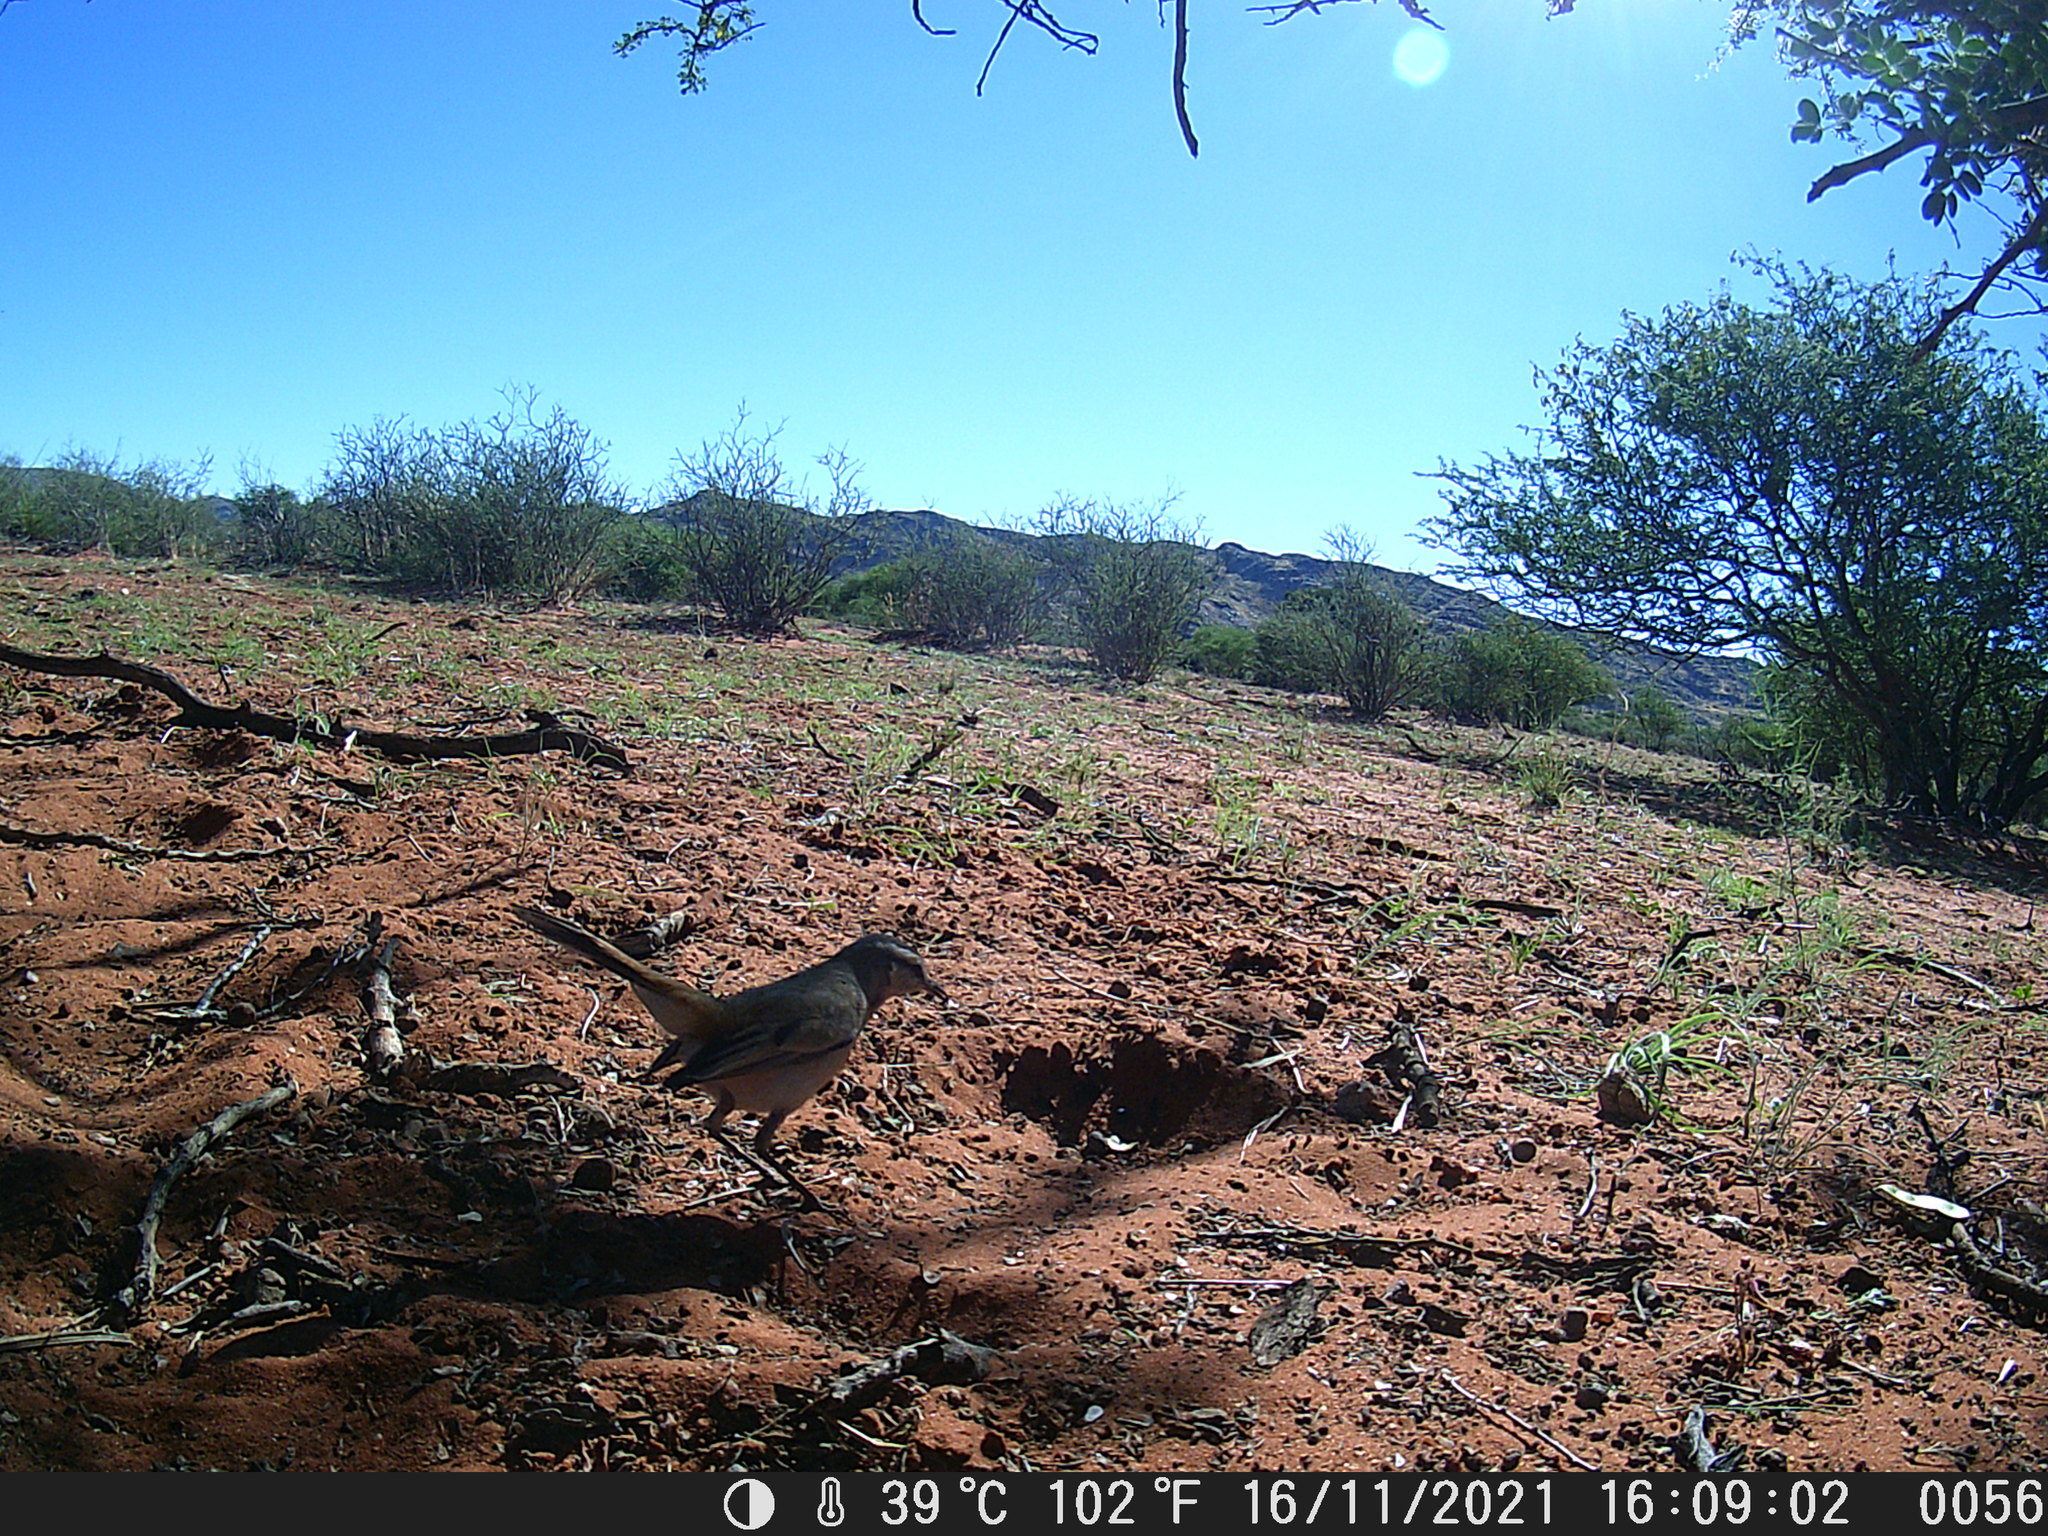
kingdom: Animalia
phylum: Chordata
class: Aves
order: Passeriformes
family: Muscicapidae
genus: Erythropygia
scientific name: Erythropygia paena
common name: Kalahari scrub robin
